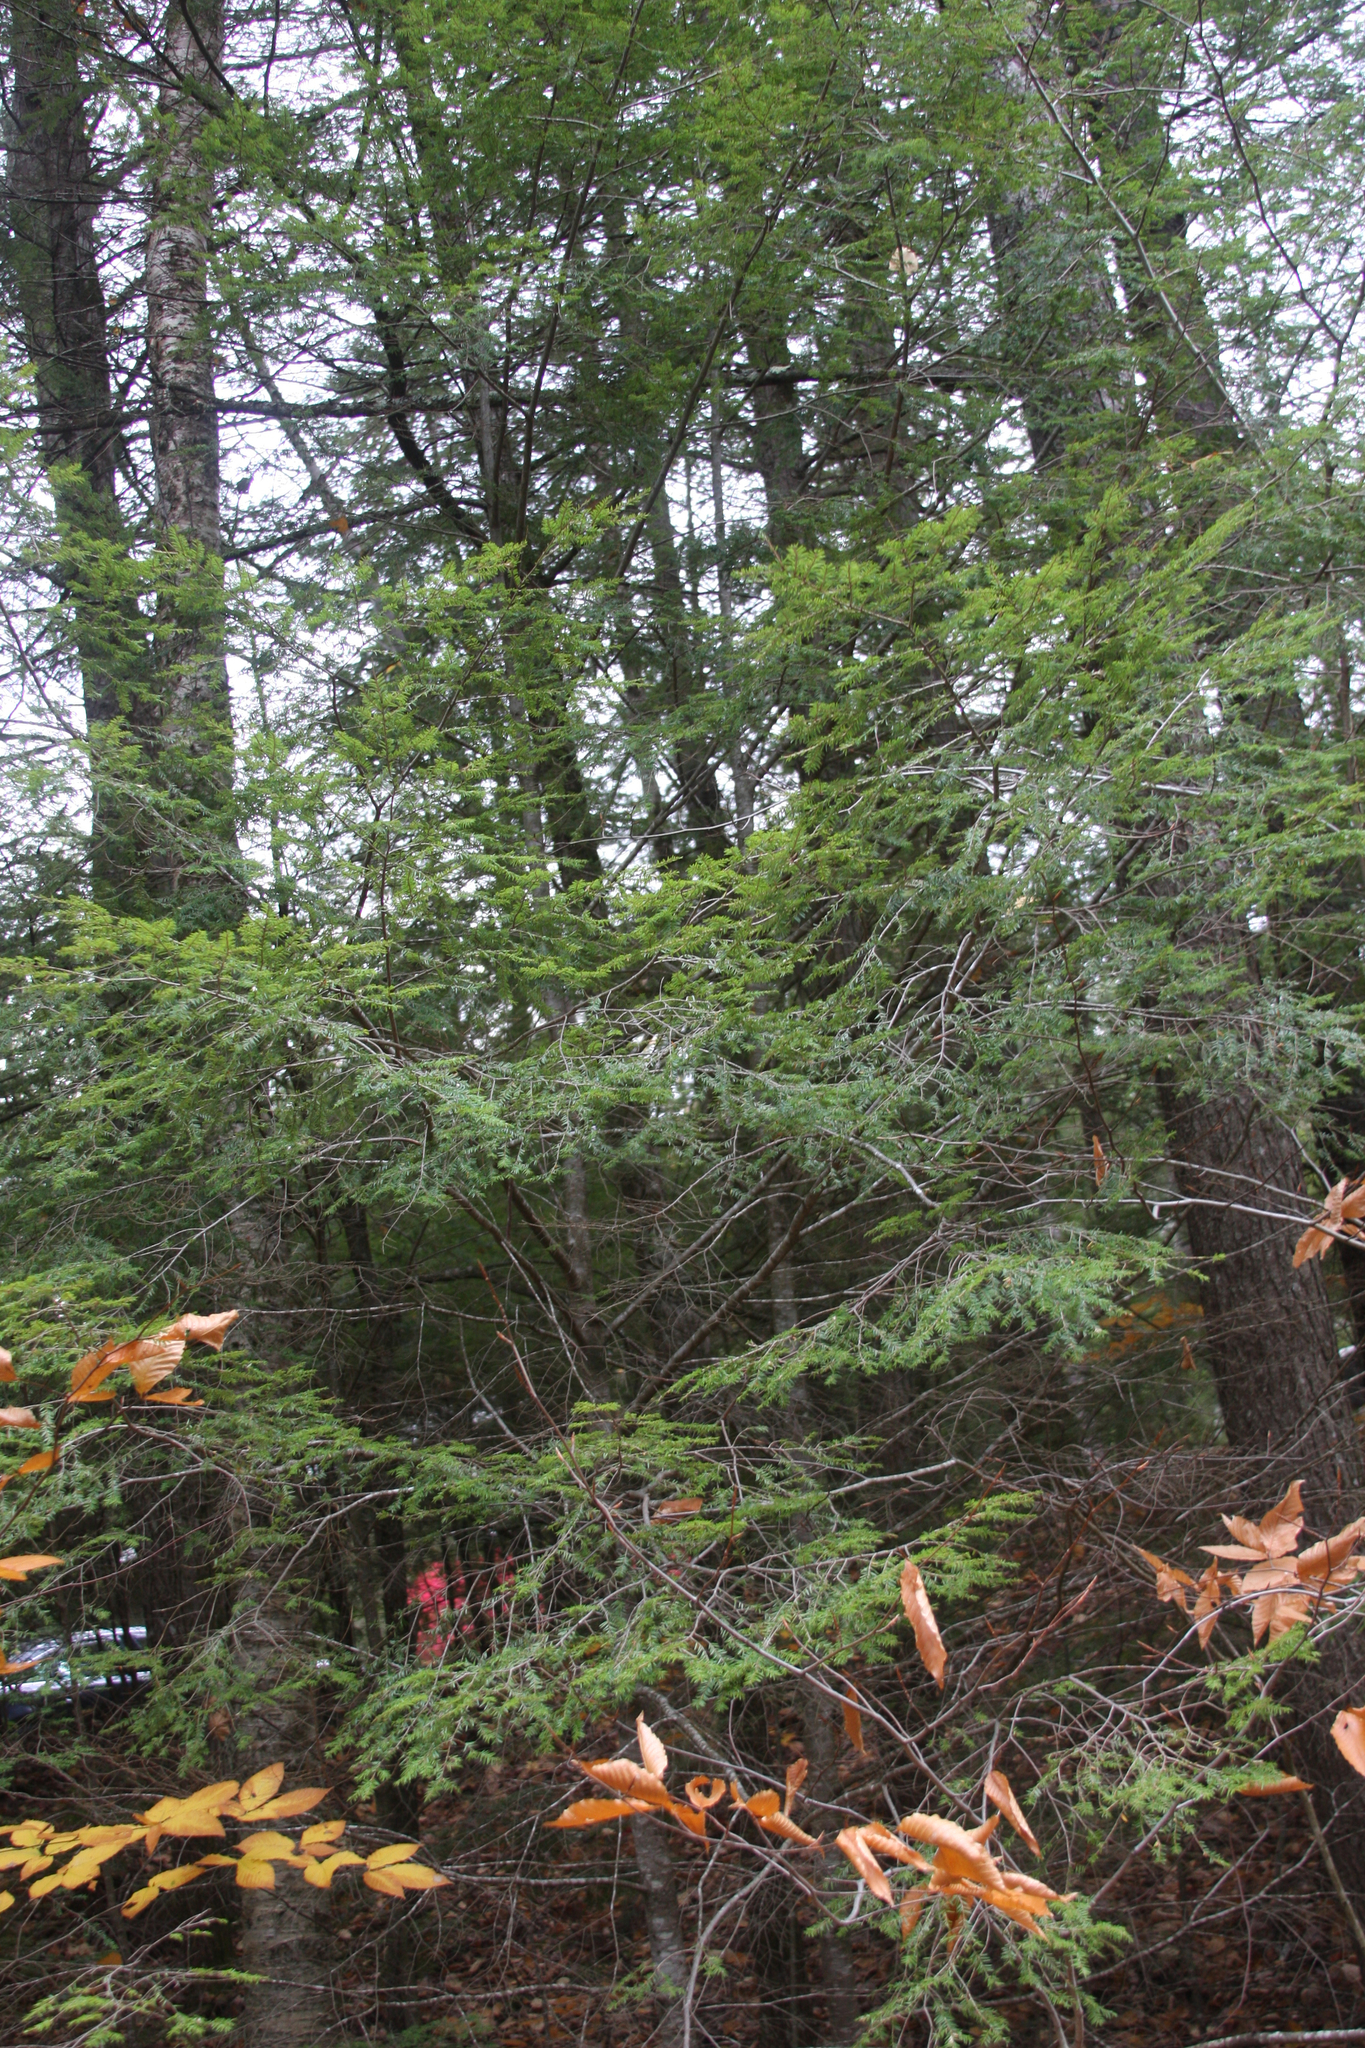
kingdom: Plantae
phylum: Tracheophyta
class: Pinopsida
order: Pinales
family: Pinaceae
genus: Tsuga
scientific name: Tsuga canadensis
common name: Eastern hemlock
